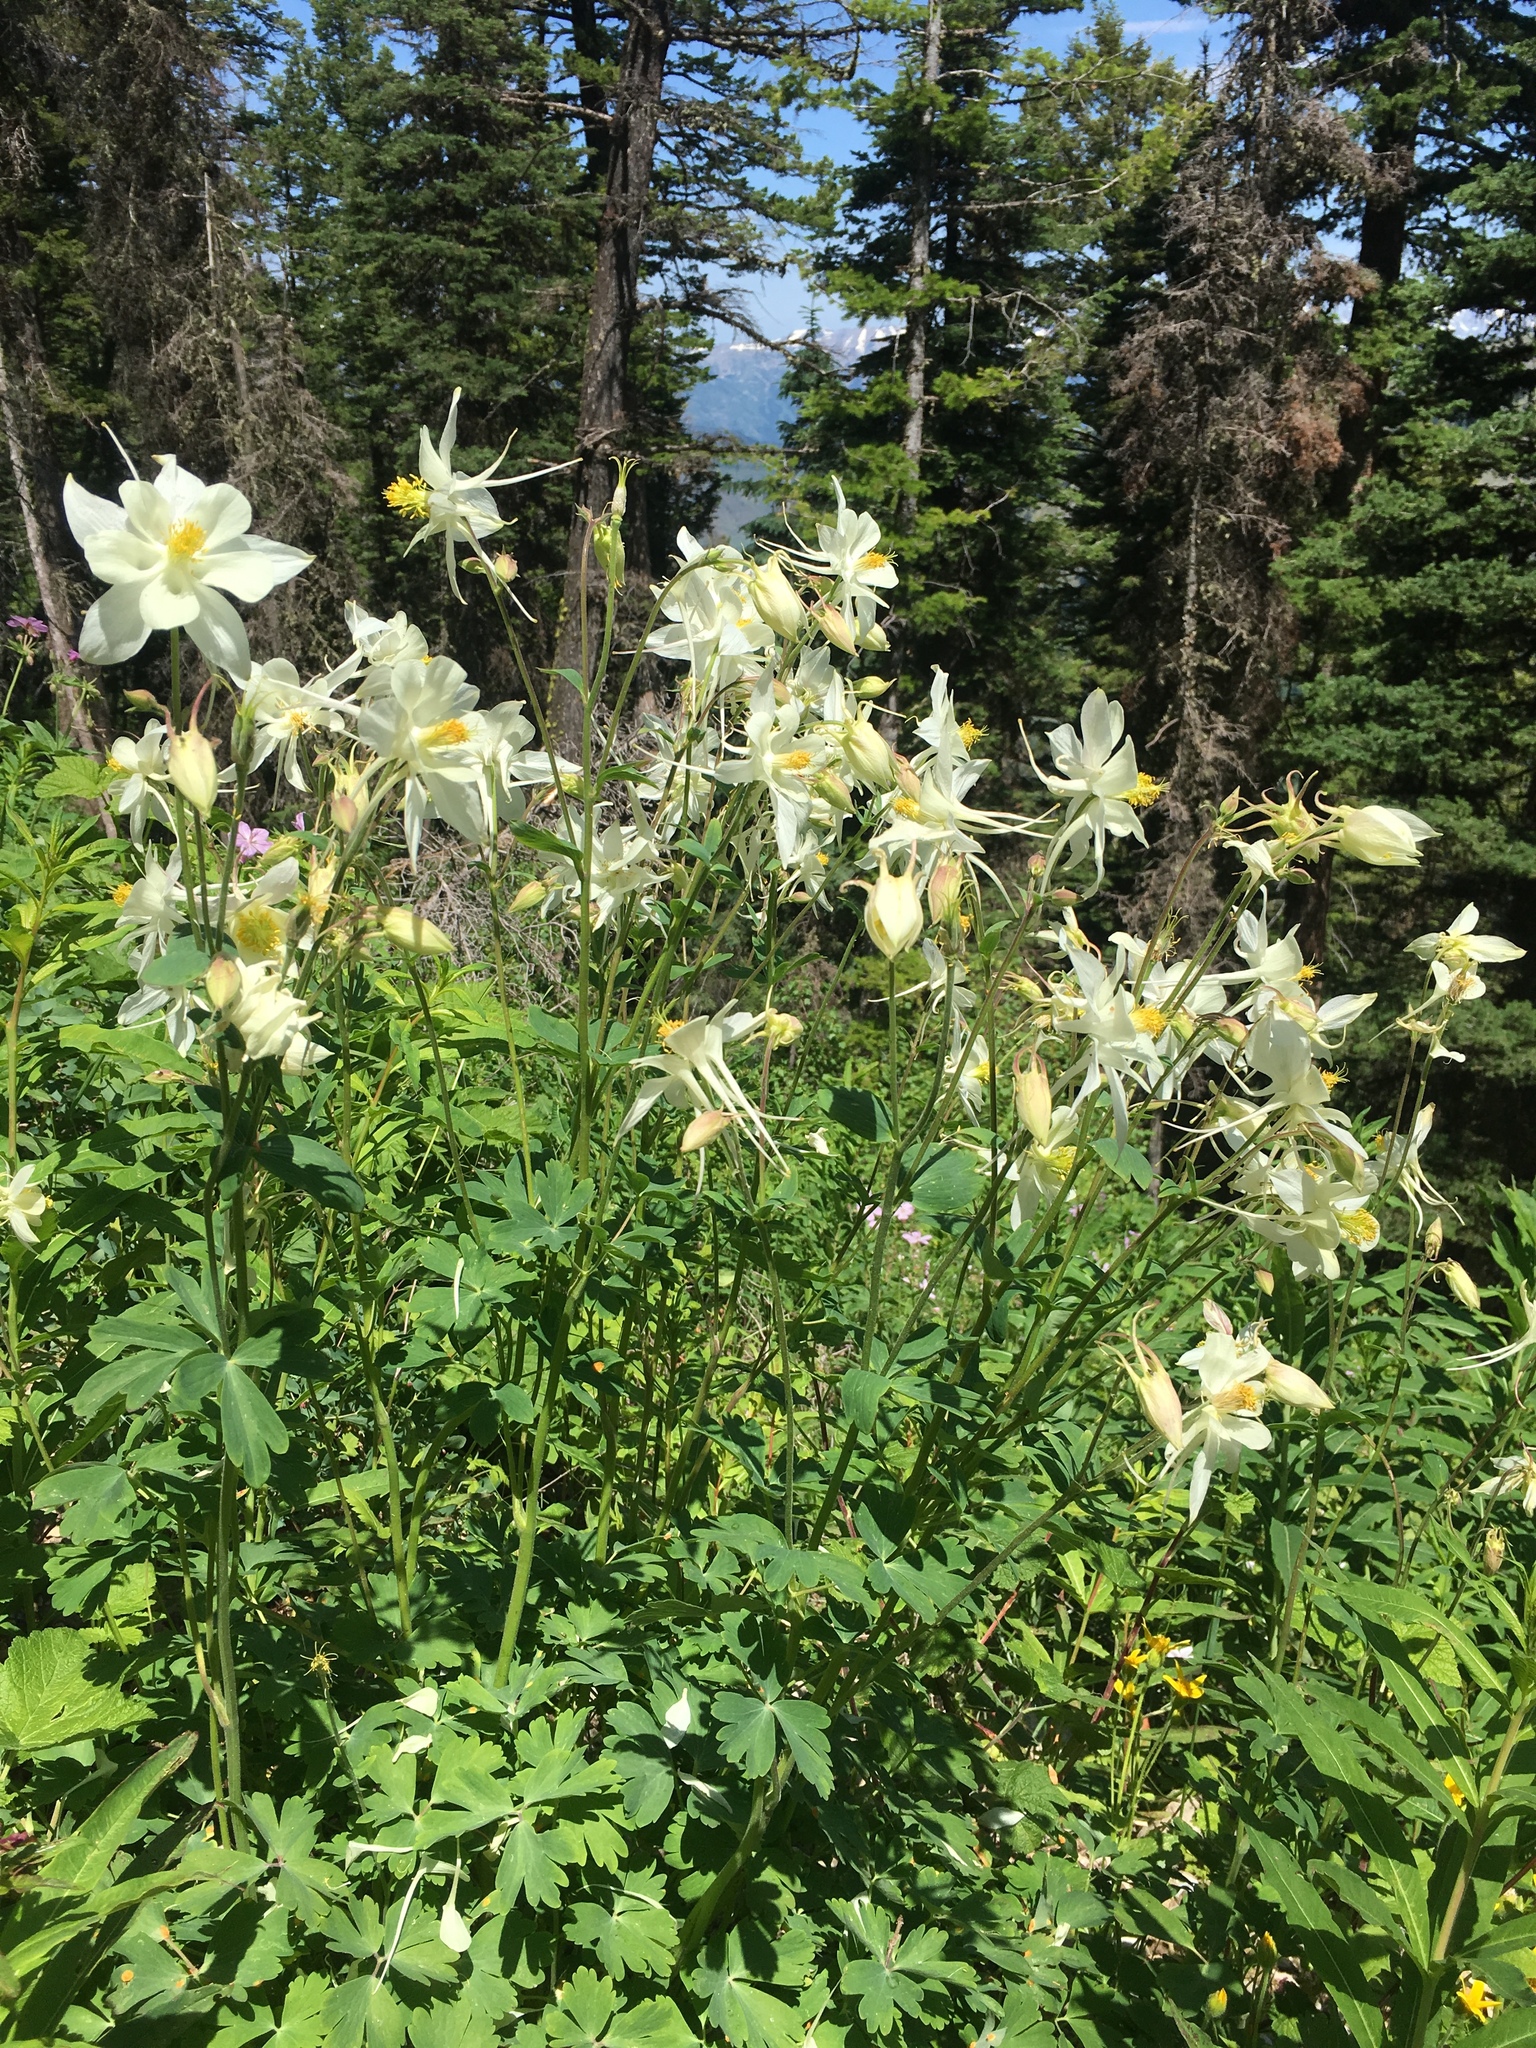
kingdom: Plantae
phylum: Tracheophyta
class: Magnoliopsida
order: Ranunculales
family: Ranunculaceae
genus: Aquilegia
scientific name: Aquilegia coerulea
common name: Rocky mountain columbine
